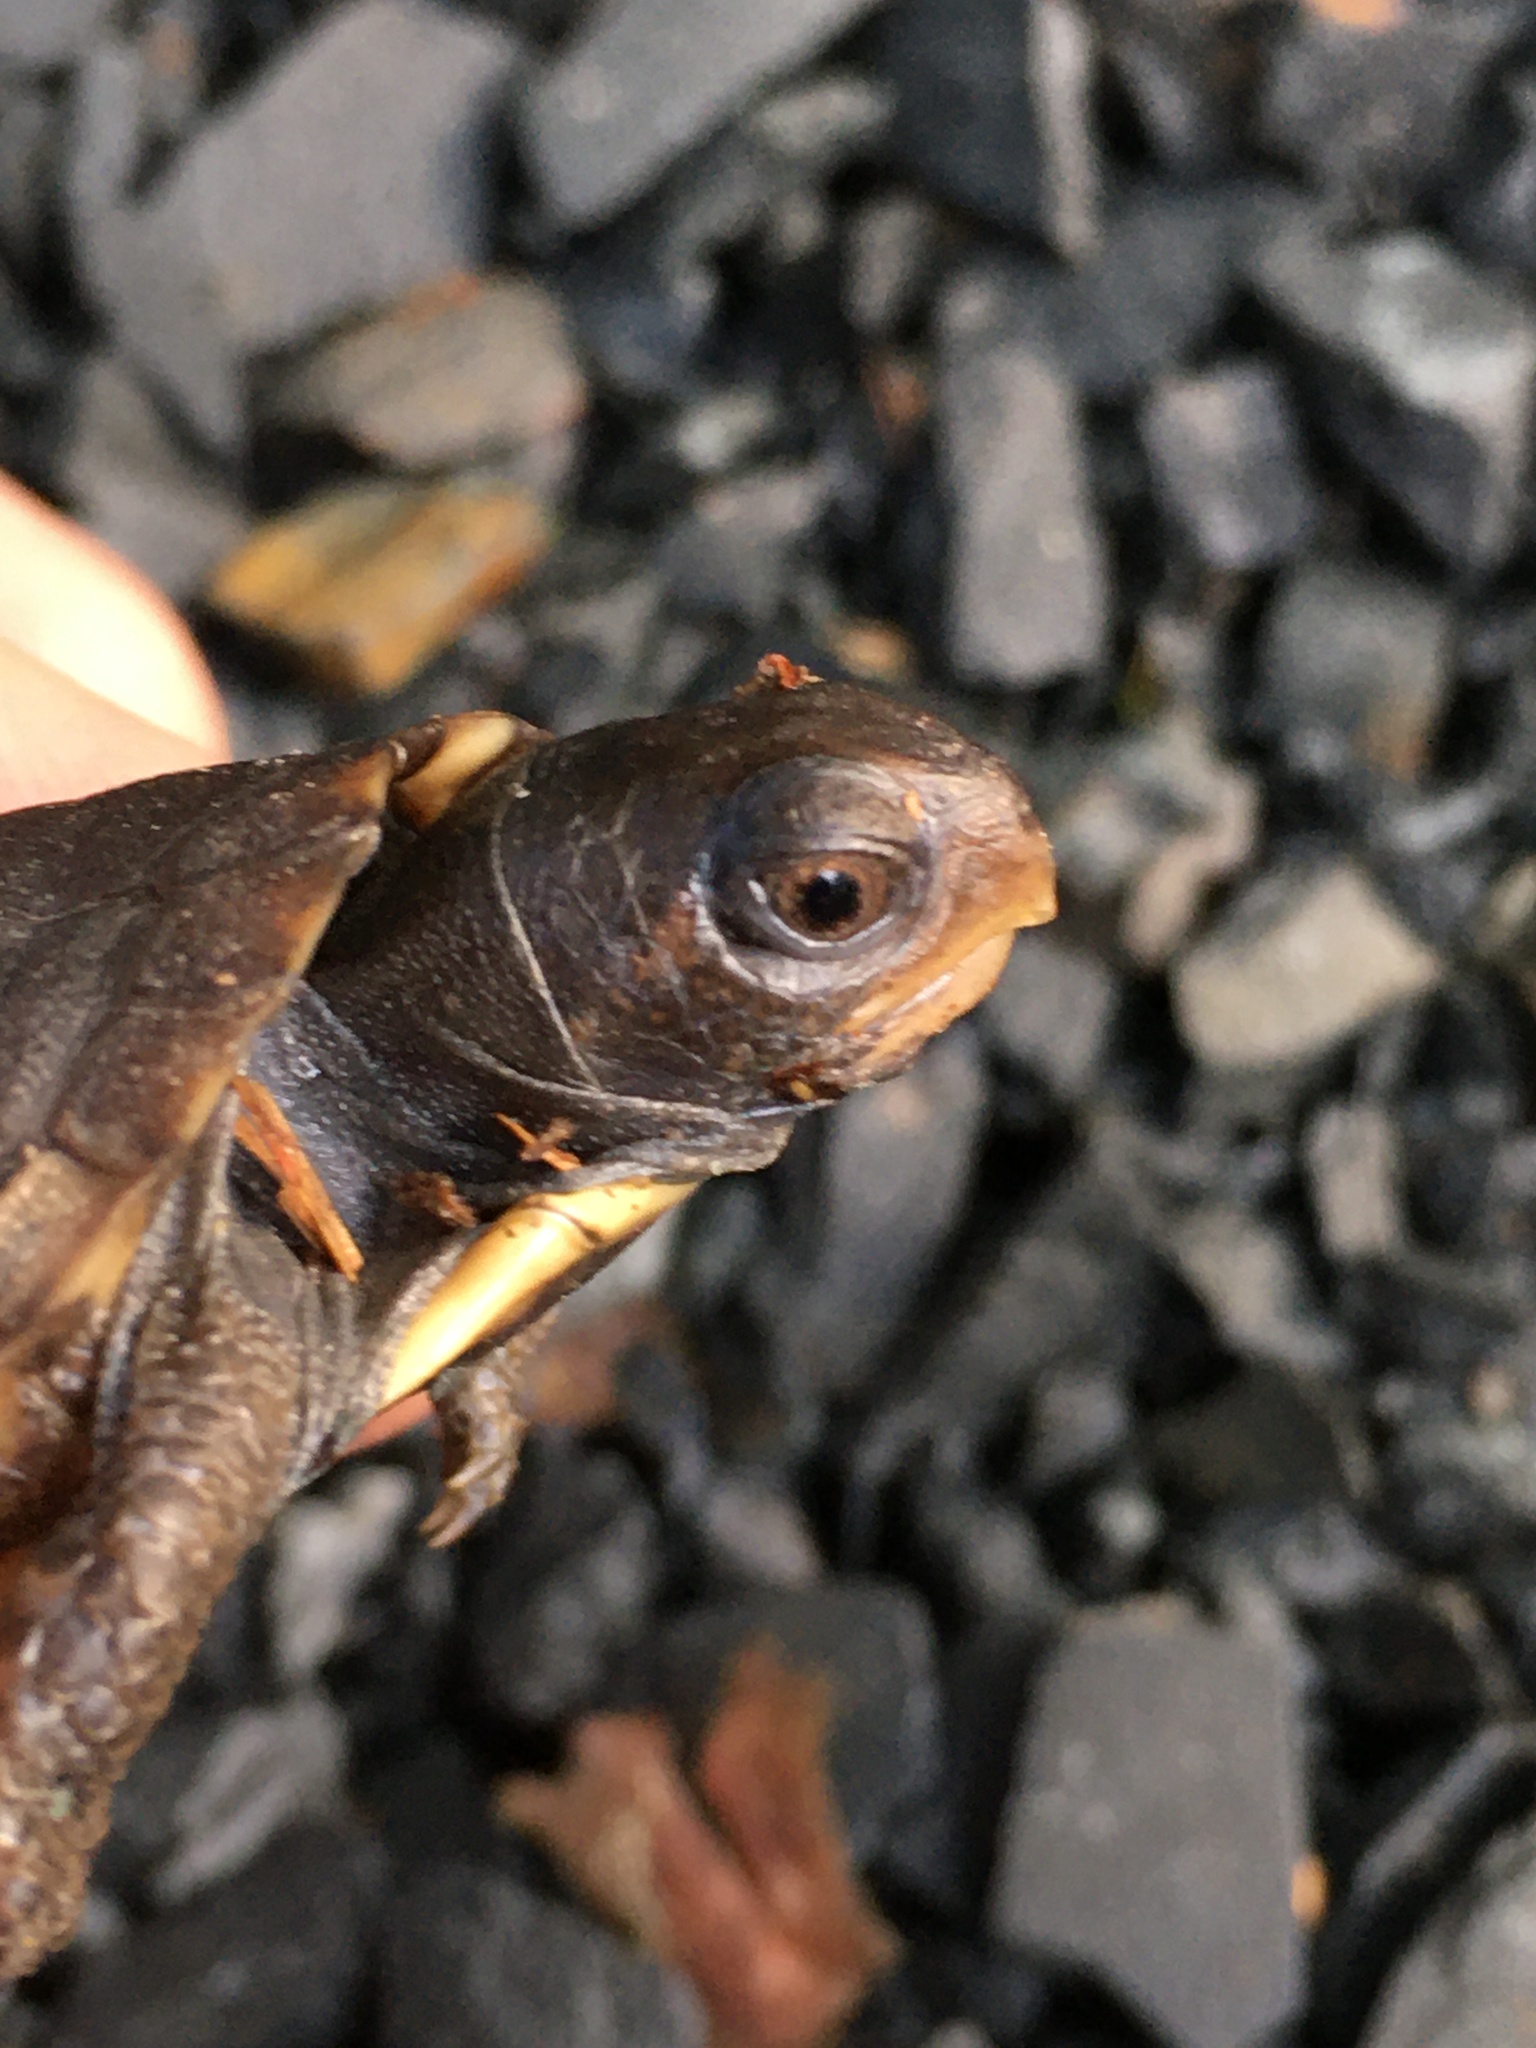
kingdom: Animalia
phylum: Chordata
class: Testudines
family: Emydidae
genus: Terrapene
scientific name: Terrapene carolina
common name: Common box turtle
